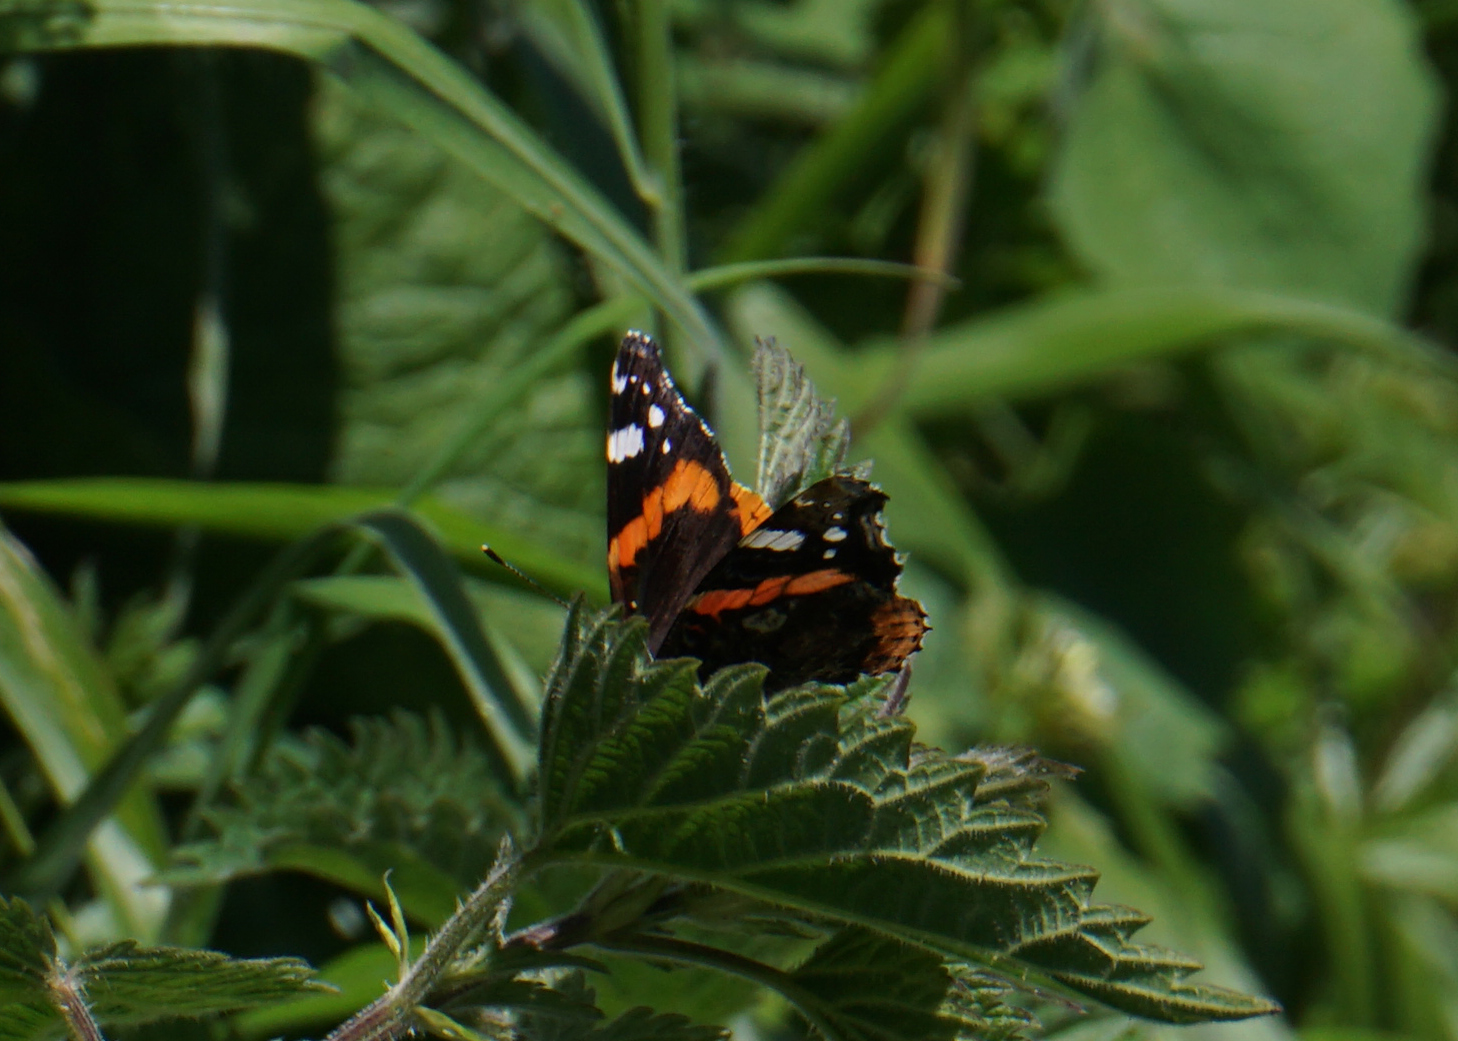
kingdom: Animalia
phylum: Arthropoda
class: Insecta
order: Lepidoptera
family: Nymphalidae
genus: Vanessa
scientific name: Vanessa atalanta
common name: Red admiral
